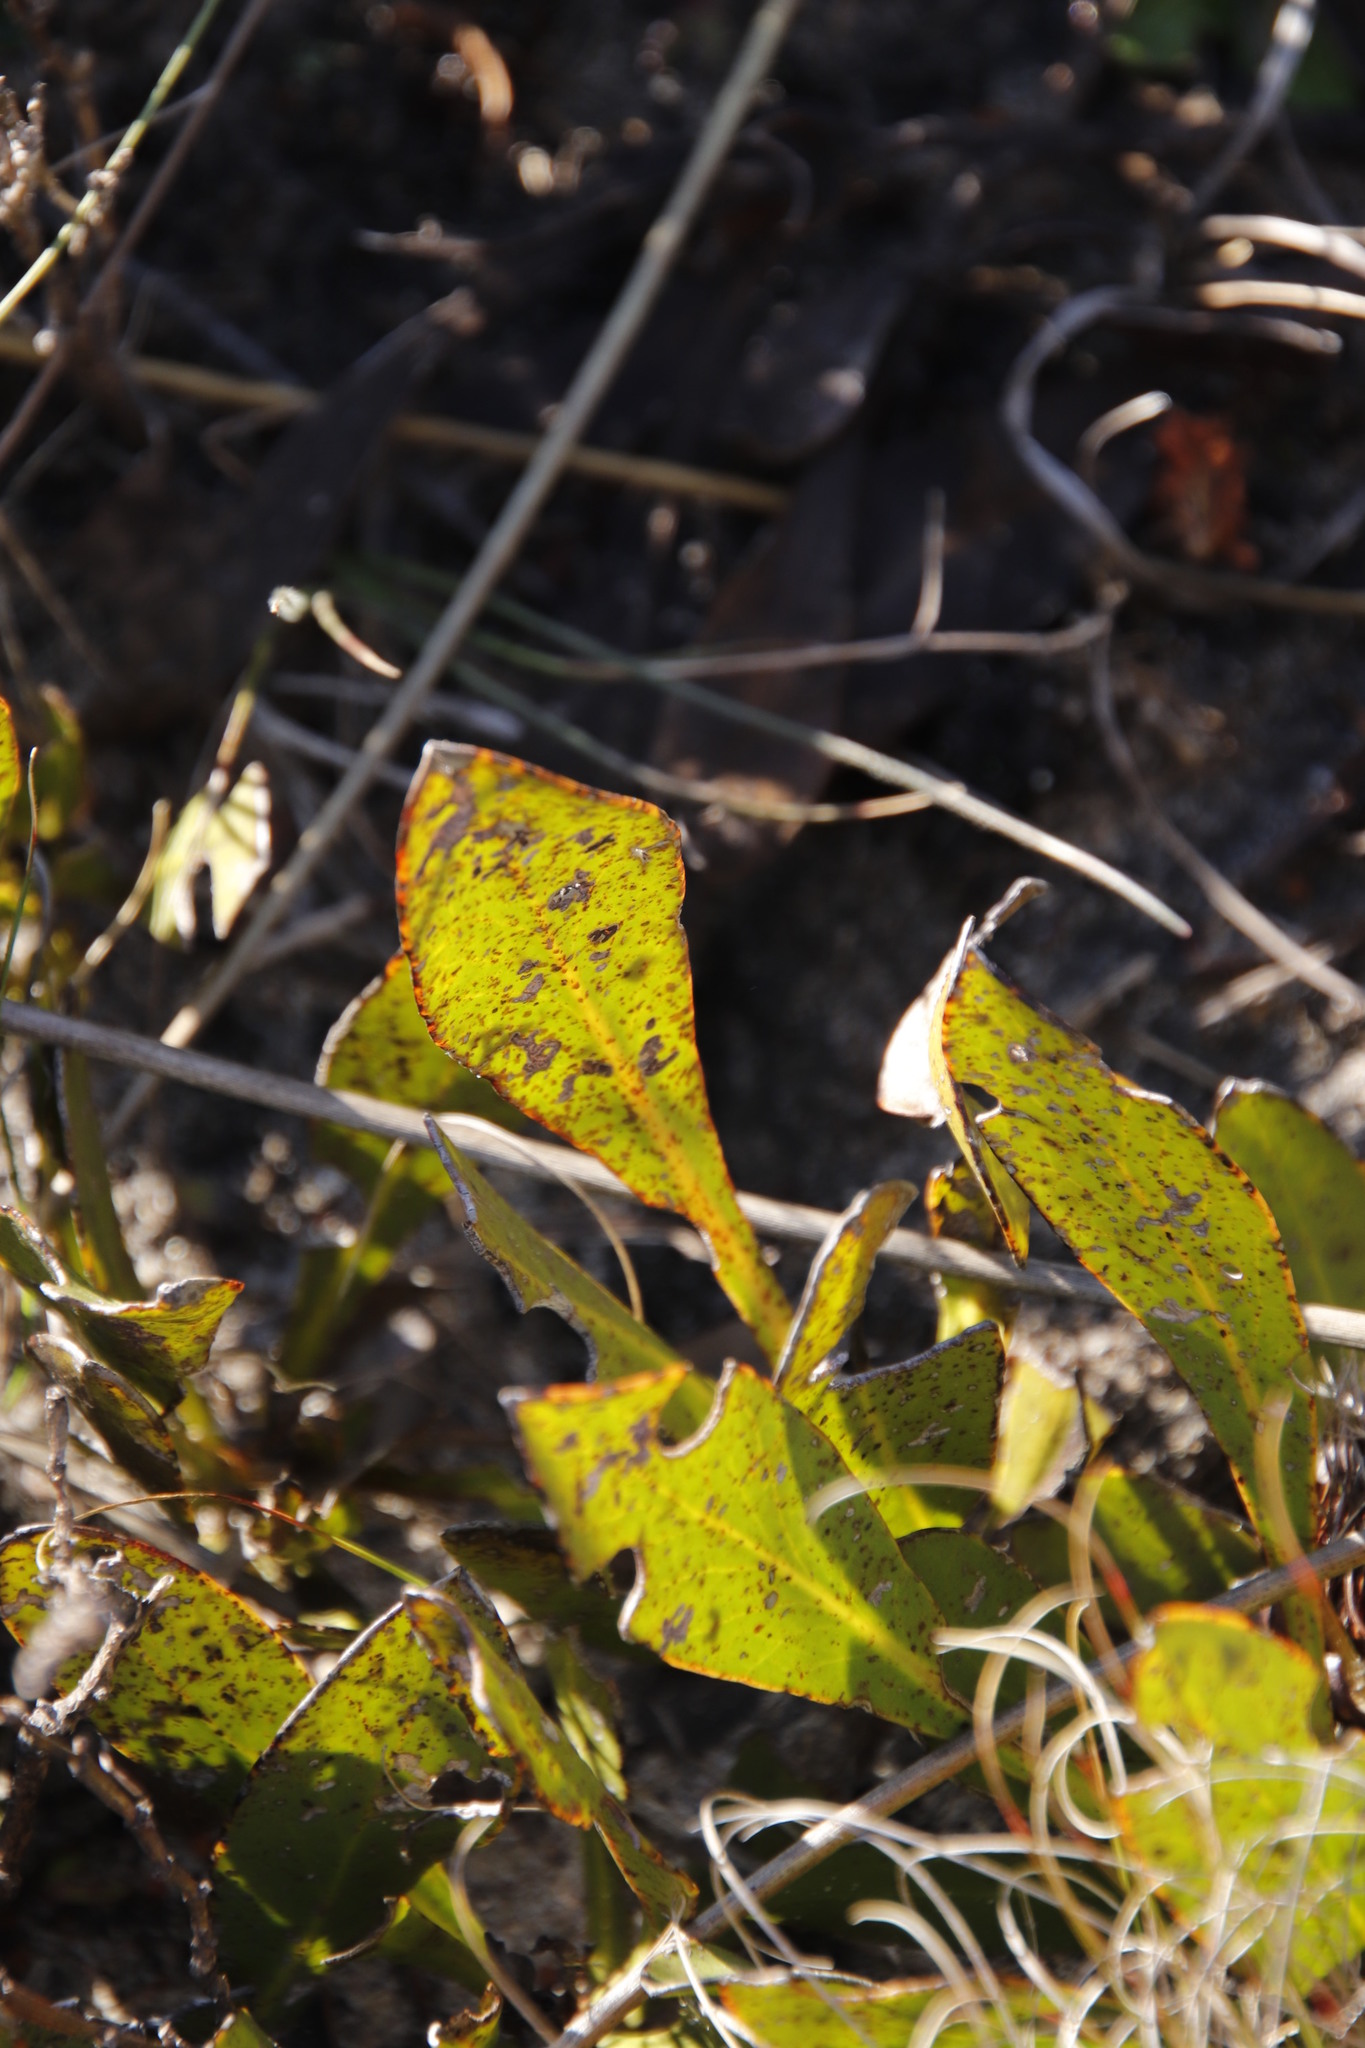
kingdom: Plantae
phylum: Tracheophyta
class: Magnoliopsida
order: Proteales
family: Proteaceae
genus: Protea
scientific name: Protea acaulos
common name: Common ground sugarbush
